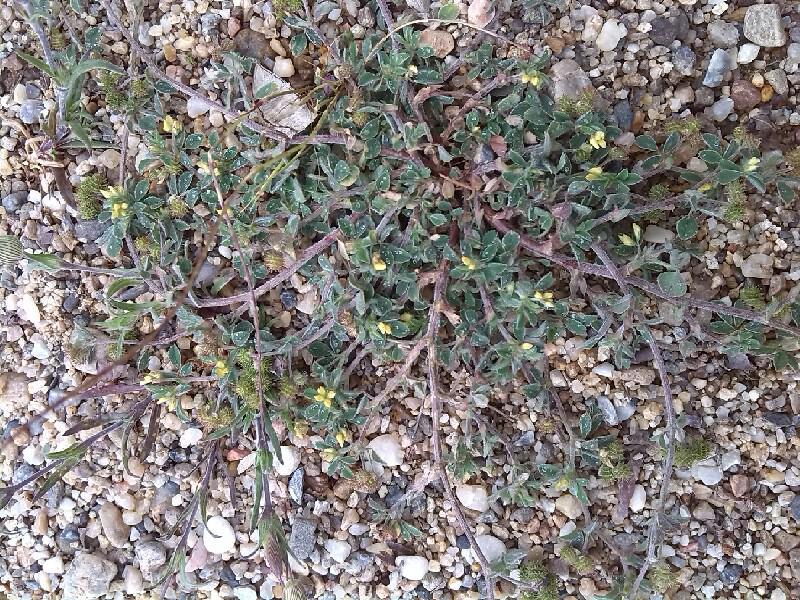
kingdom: Plantae
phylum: Tracheophyta
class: Magnoliopsida
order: Fabales
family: Fabaceae
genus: Medicago
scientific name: Medicago minima
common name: Little bur-clover
